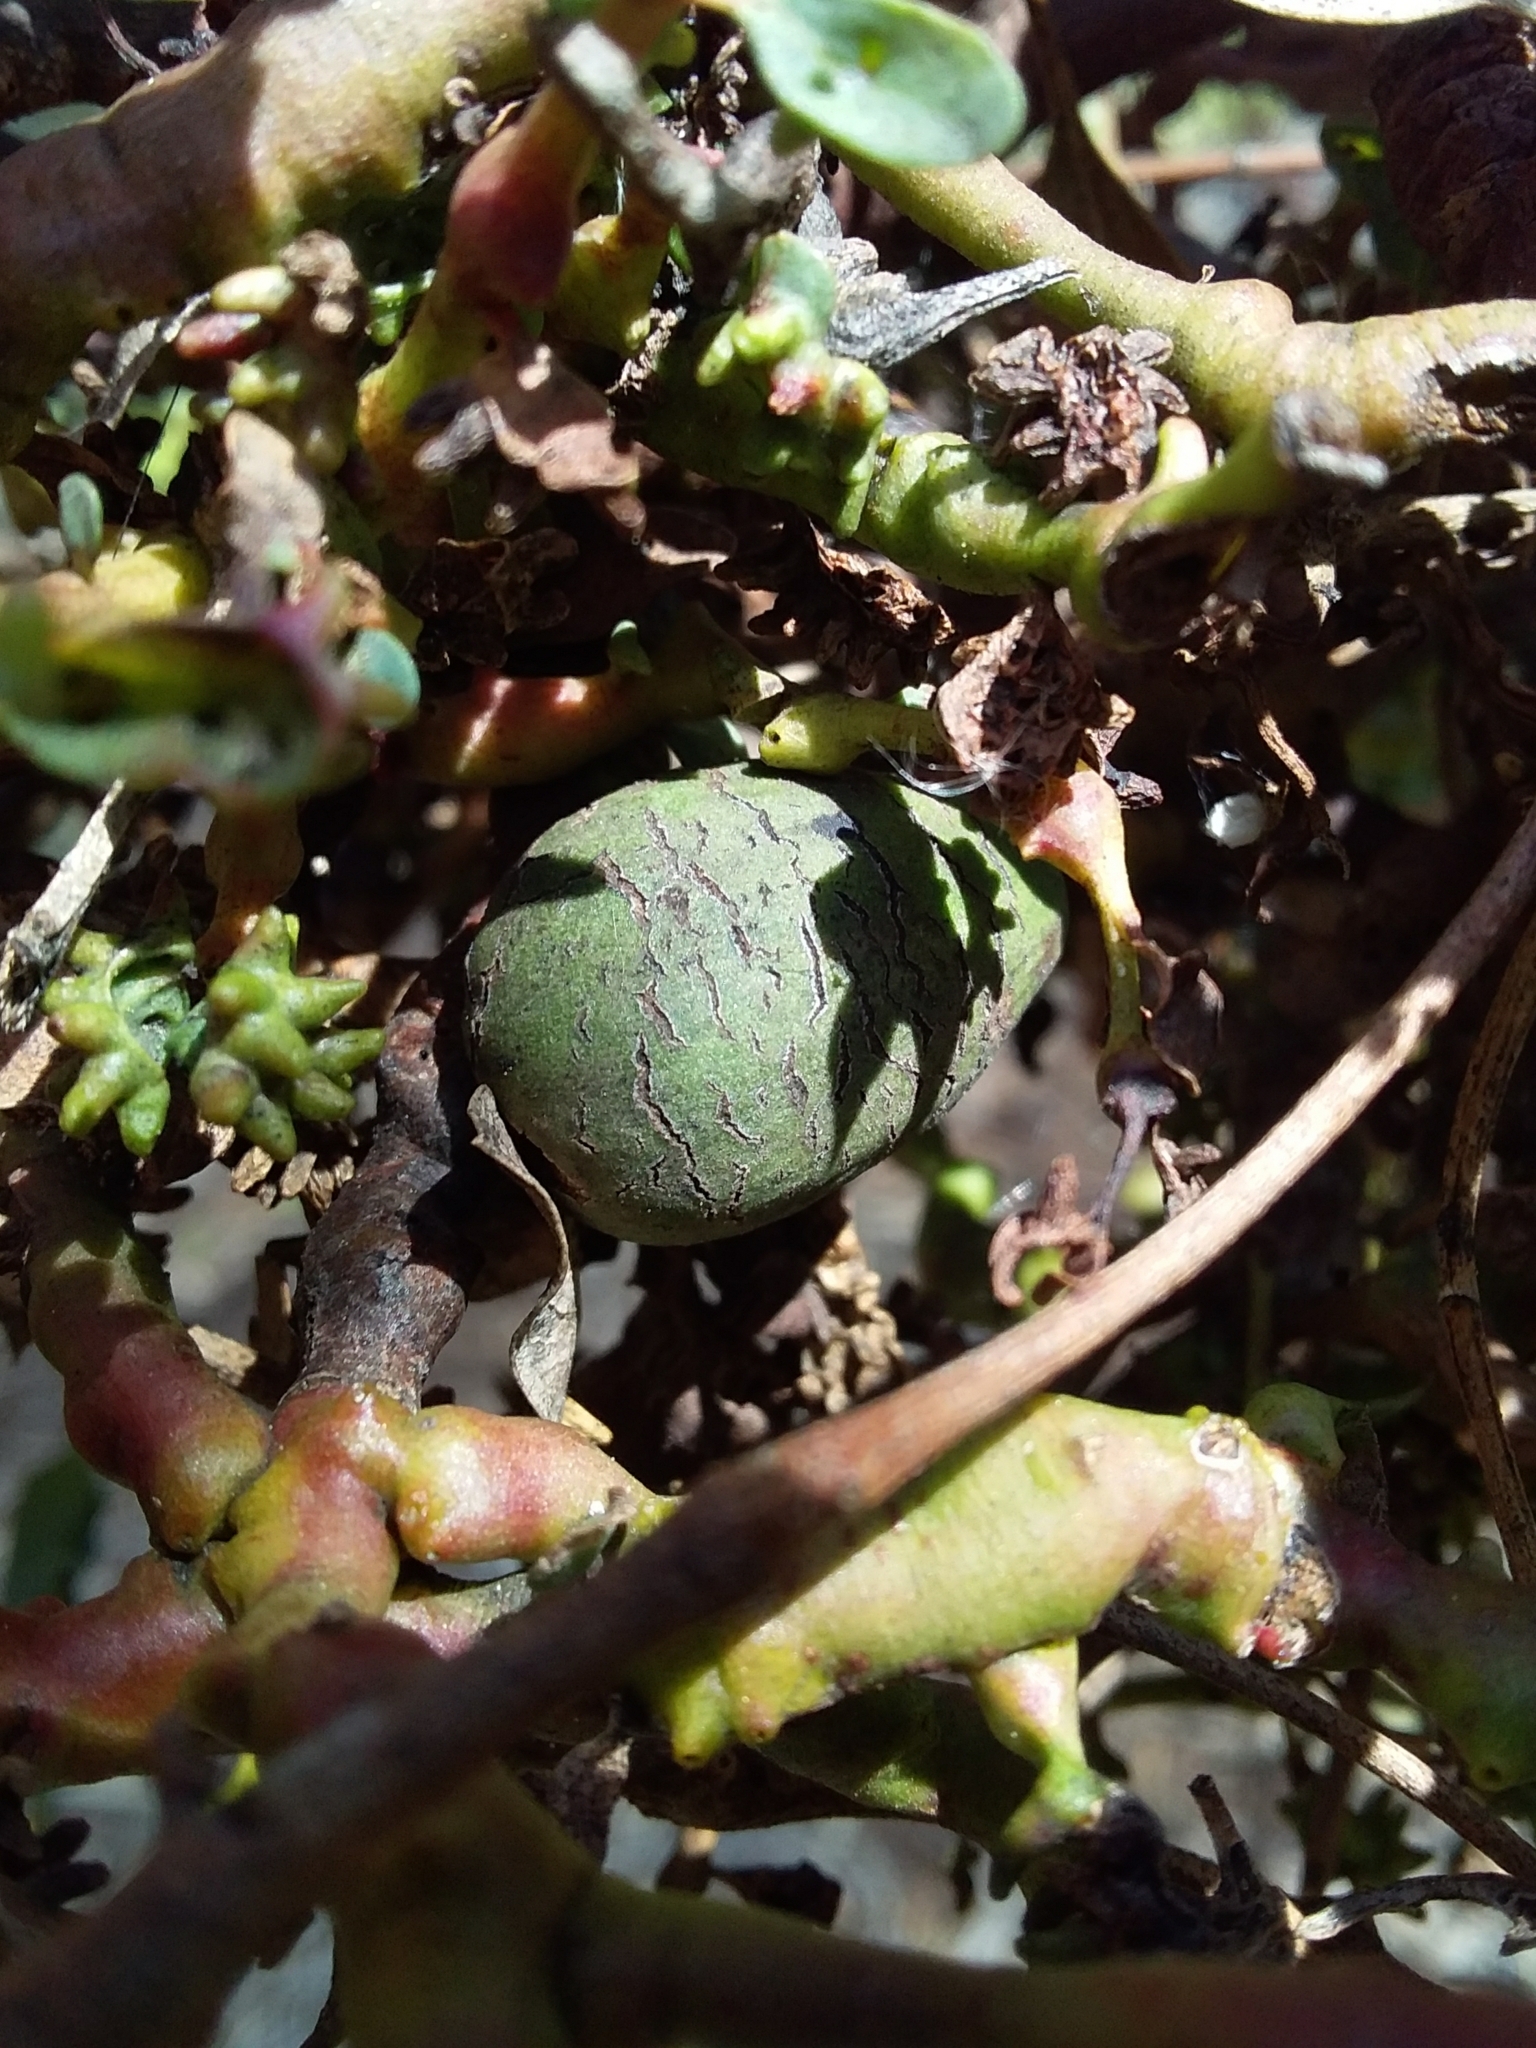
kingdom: Animalia
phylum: Arthropoda
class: Insecta
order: Hemiptera
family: Diaspididae
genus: Maskellia
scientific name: Maskellia globosa
